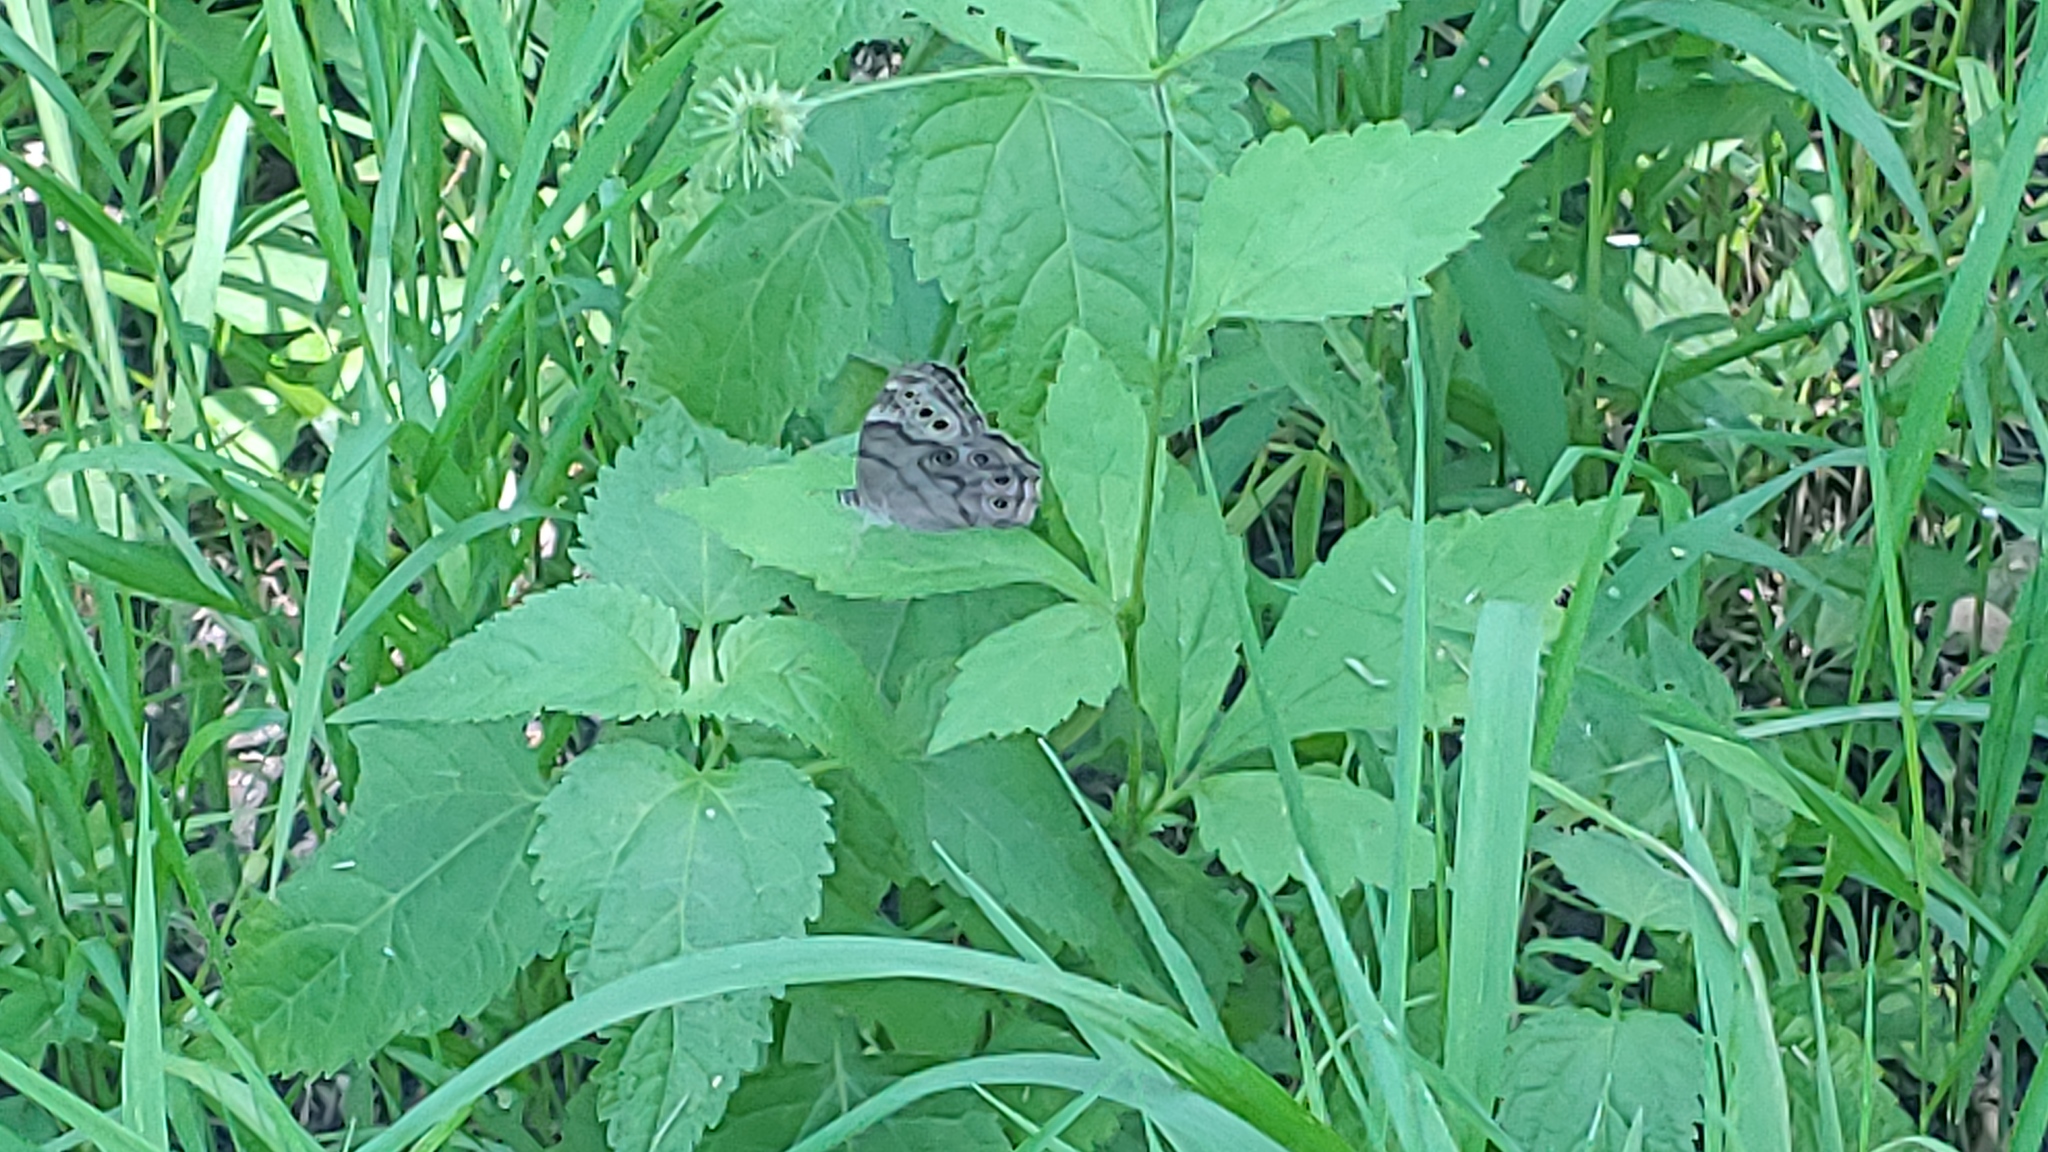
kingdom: Animalia
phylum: Arthropoda
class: Insecta
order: Lepidoptera
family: Nymphalidae
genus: Lethe
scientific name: Lethe anthedon
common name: Northern pearly-eye
